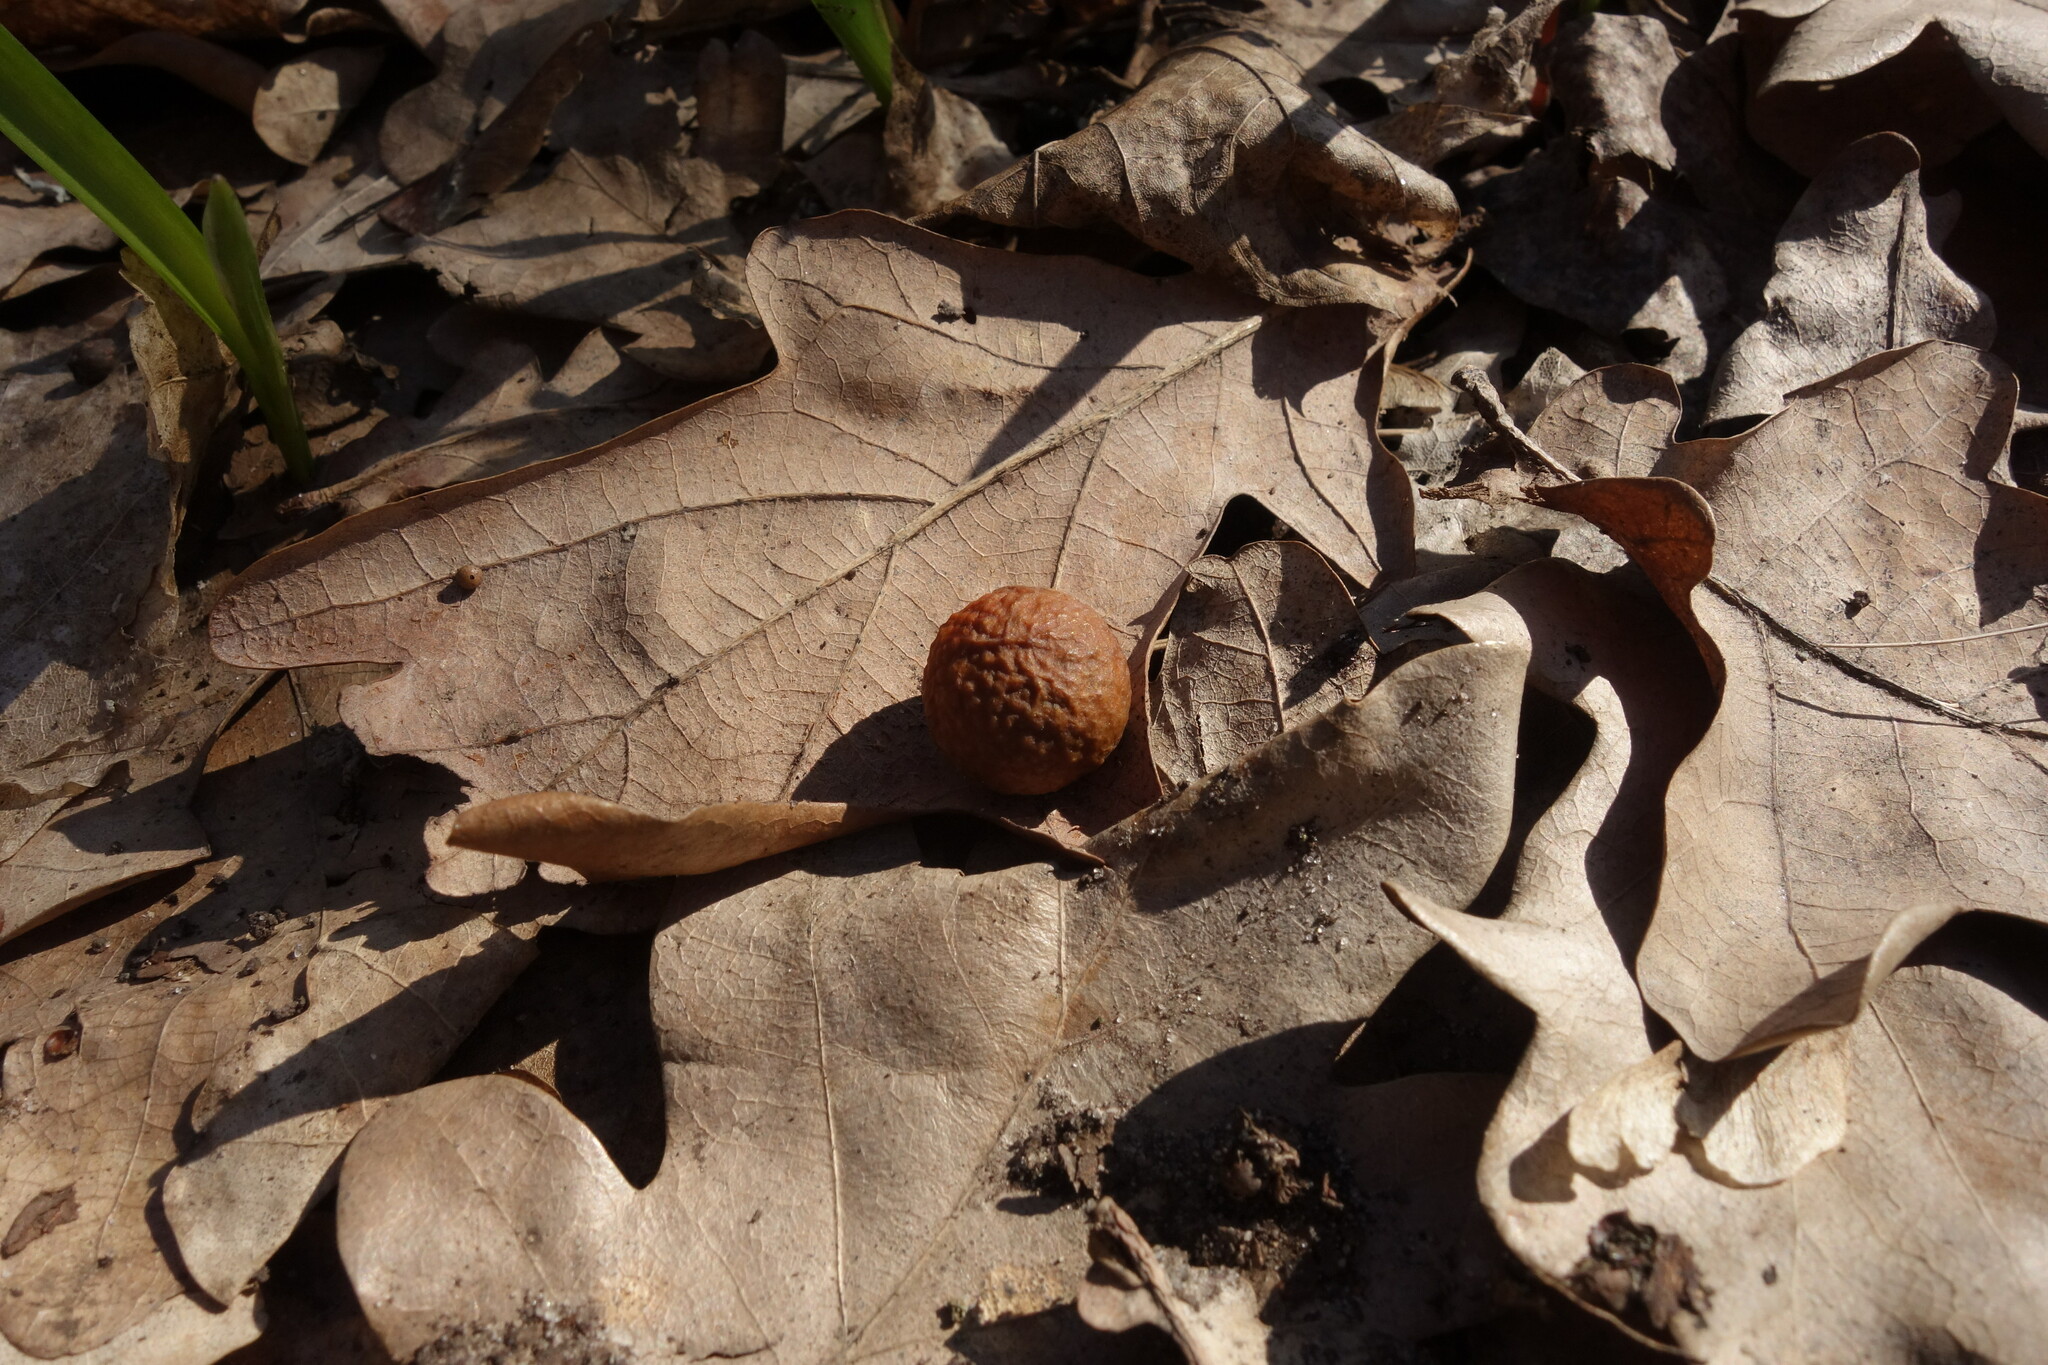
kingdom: Animalia
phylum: Arthropoda
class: Insecta
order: Hymenoptera
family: Cynipidae
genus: Cynips
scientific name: Cynips quercusfolii
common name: Cherry gall
